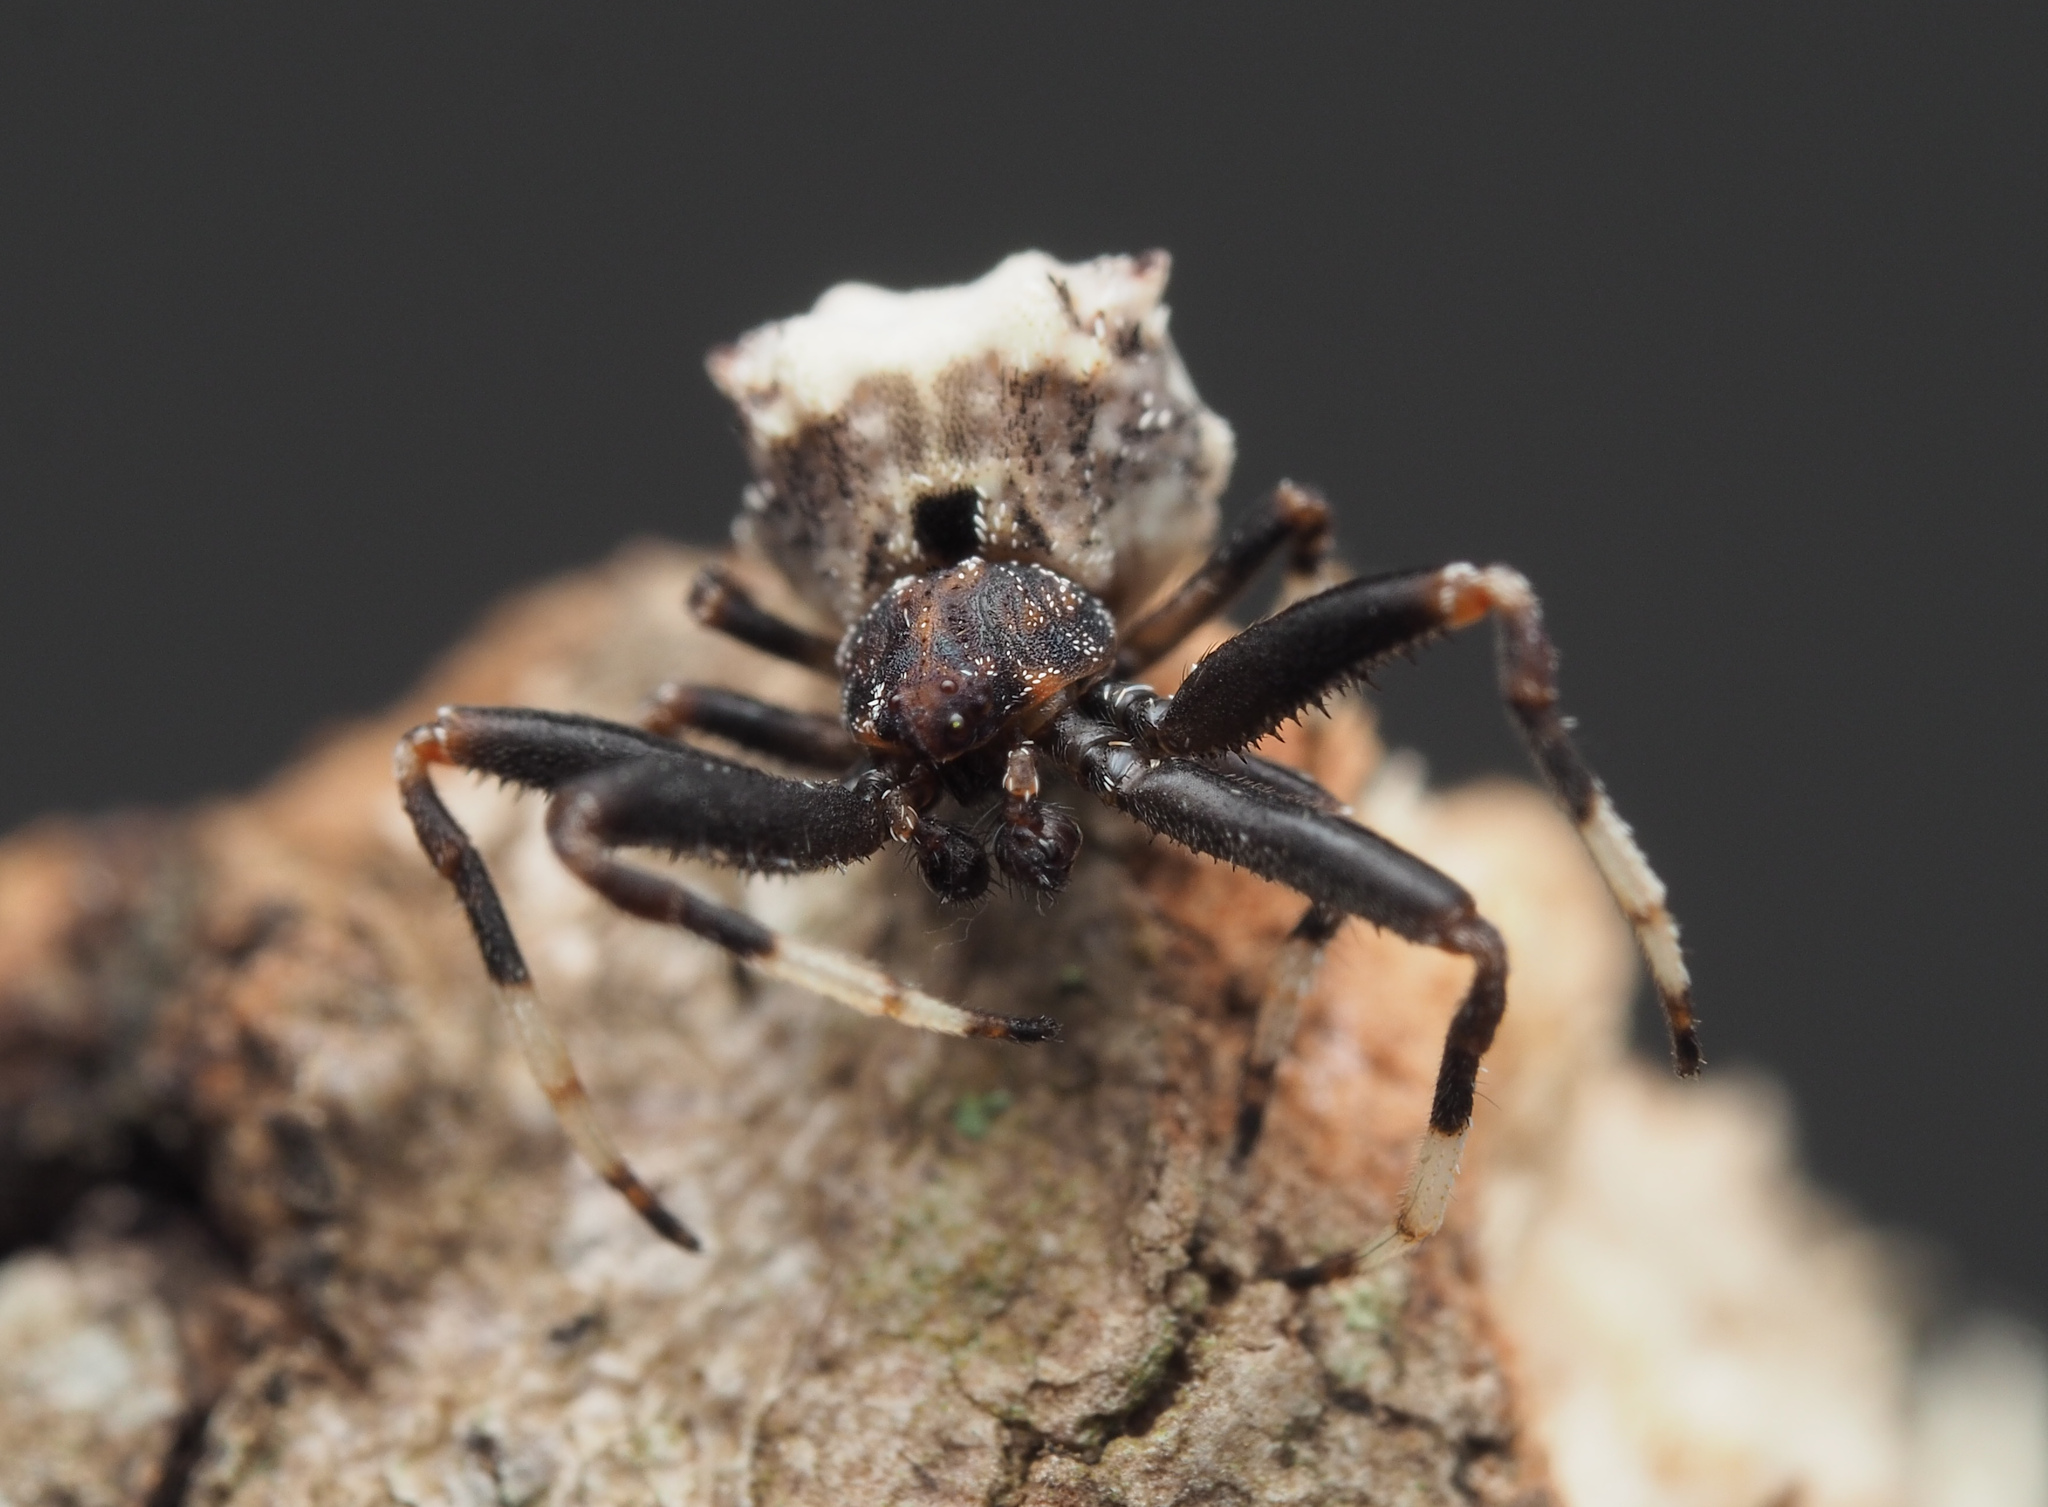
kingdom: Animalia
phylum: Arthropoda
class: Arachnida
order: Araneae
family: Araneidae
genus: Celaenia
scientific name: Celaenia excavata
